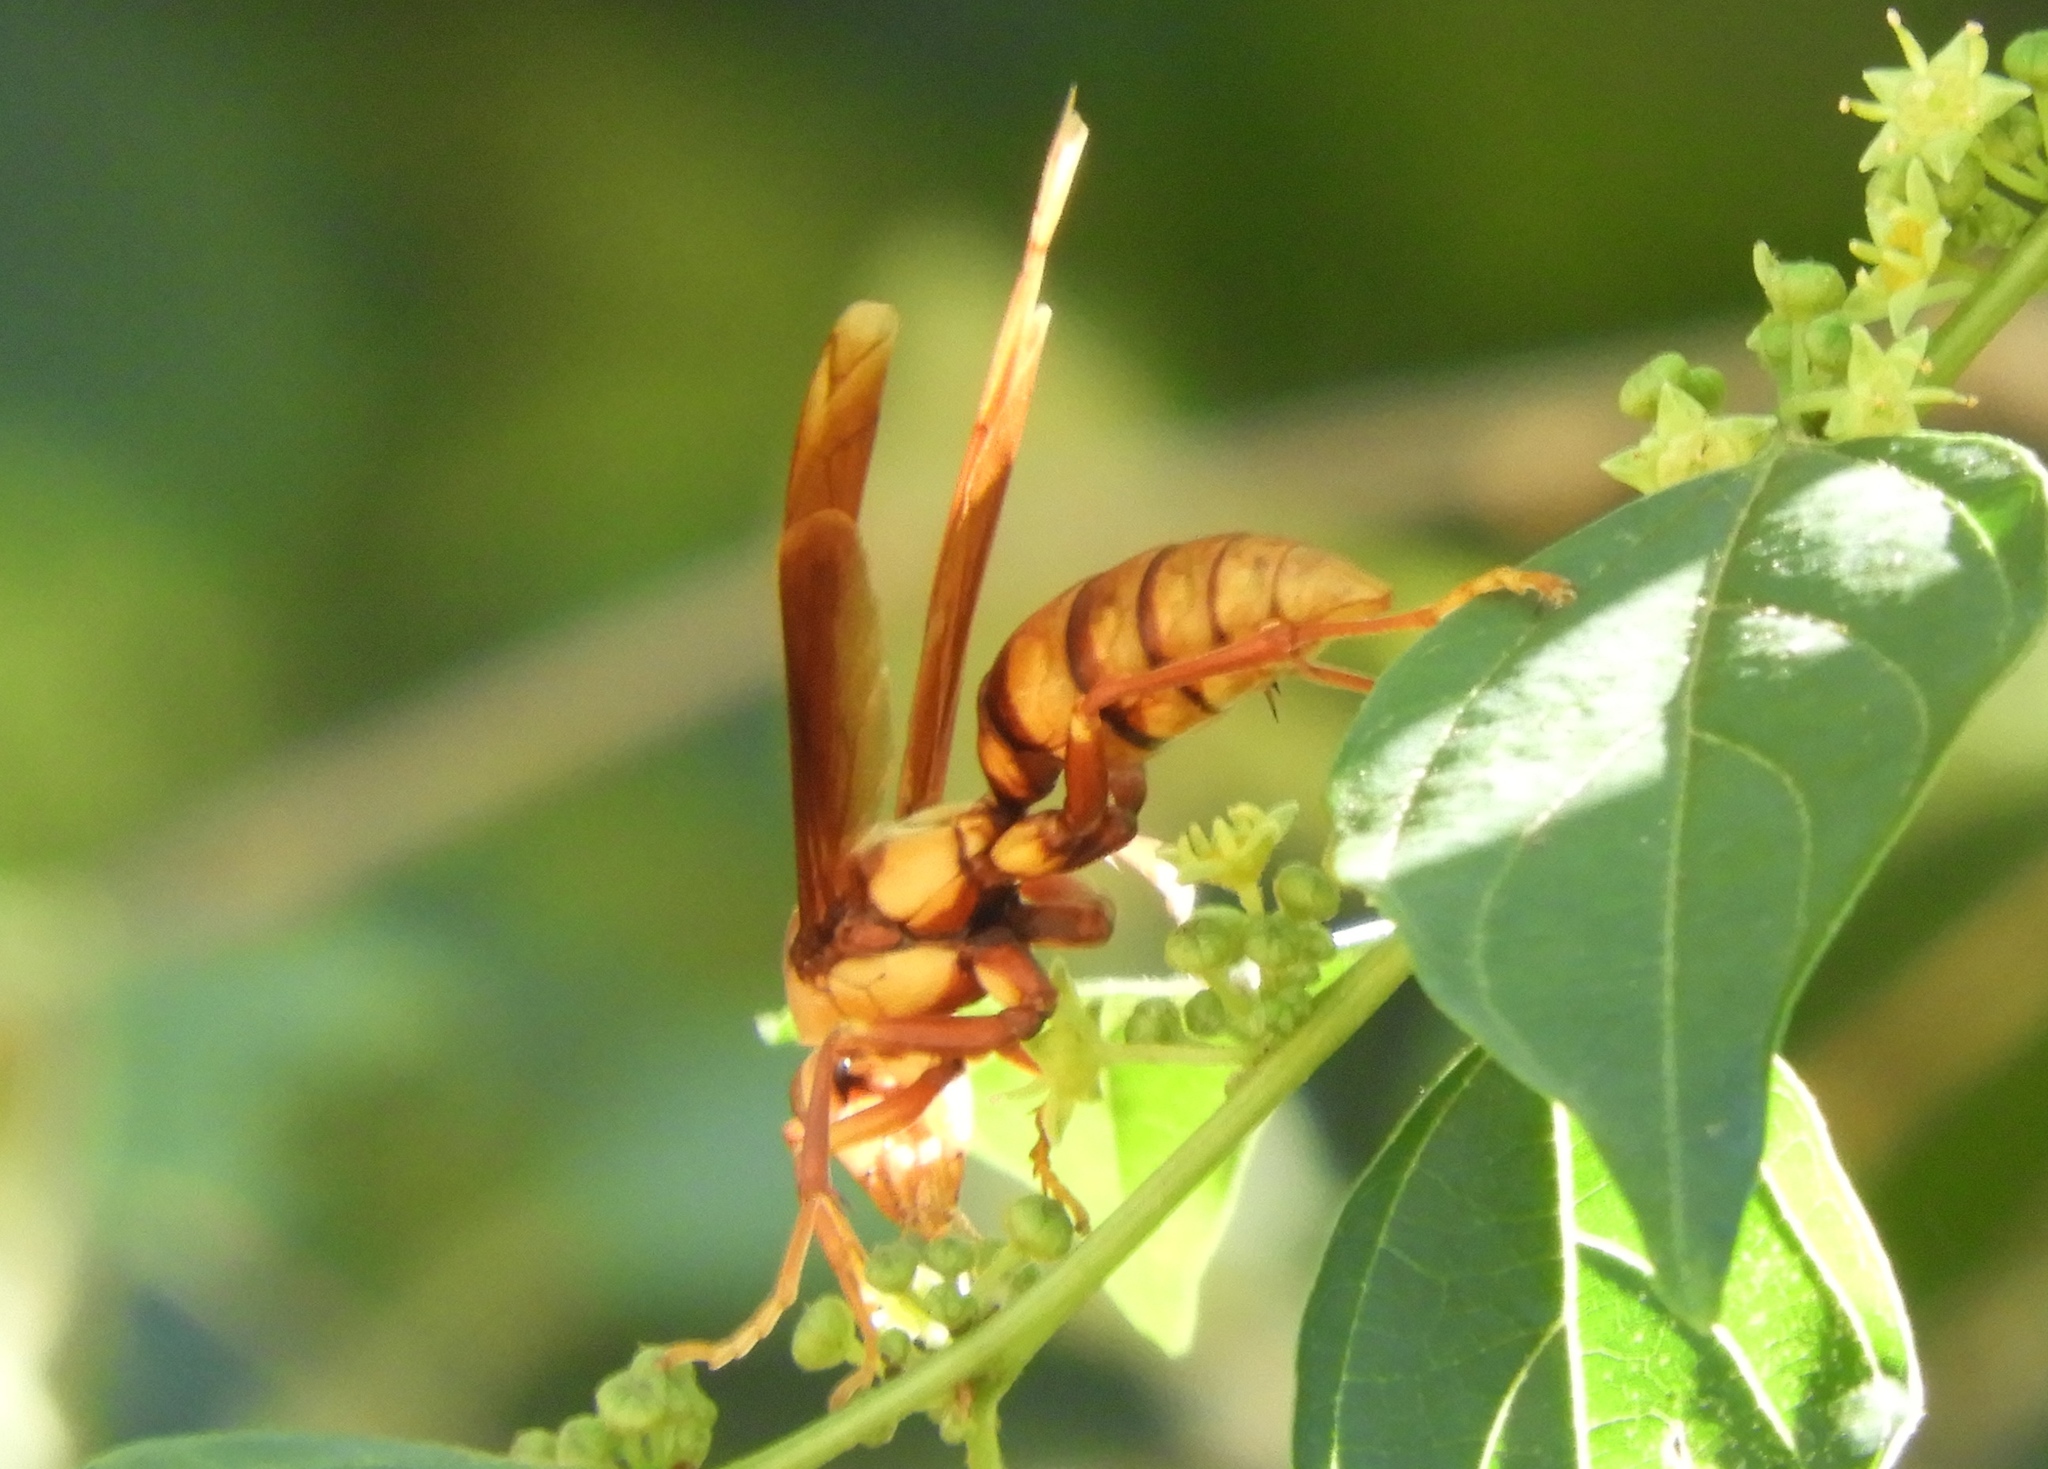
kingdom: Animalia
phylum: Arthropoda
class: Insecta
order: Hymenoptera
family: Eumenidae
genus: Polistes
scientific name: Polistes carnifex
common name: Paper wasp
